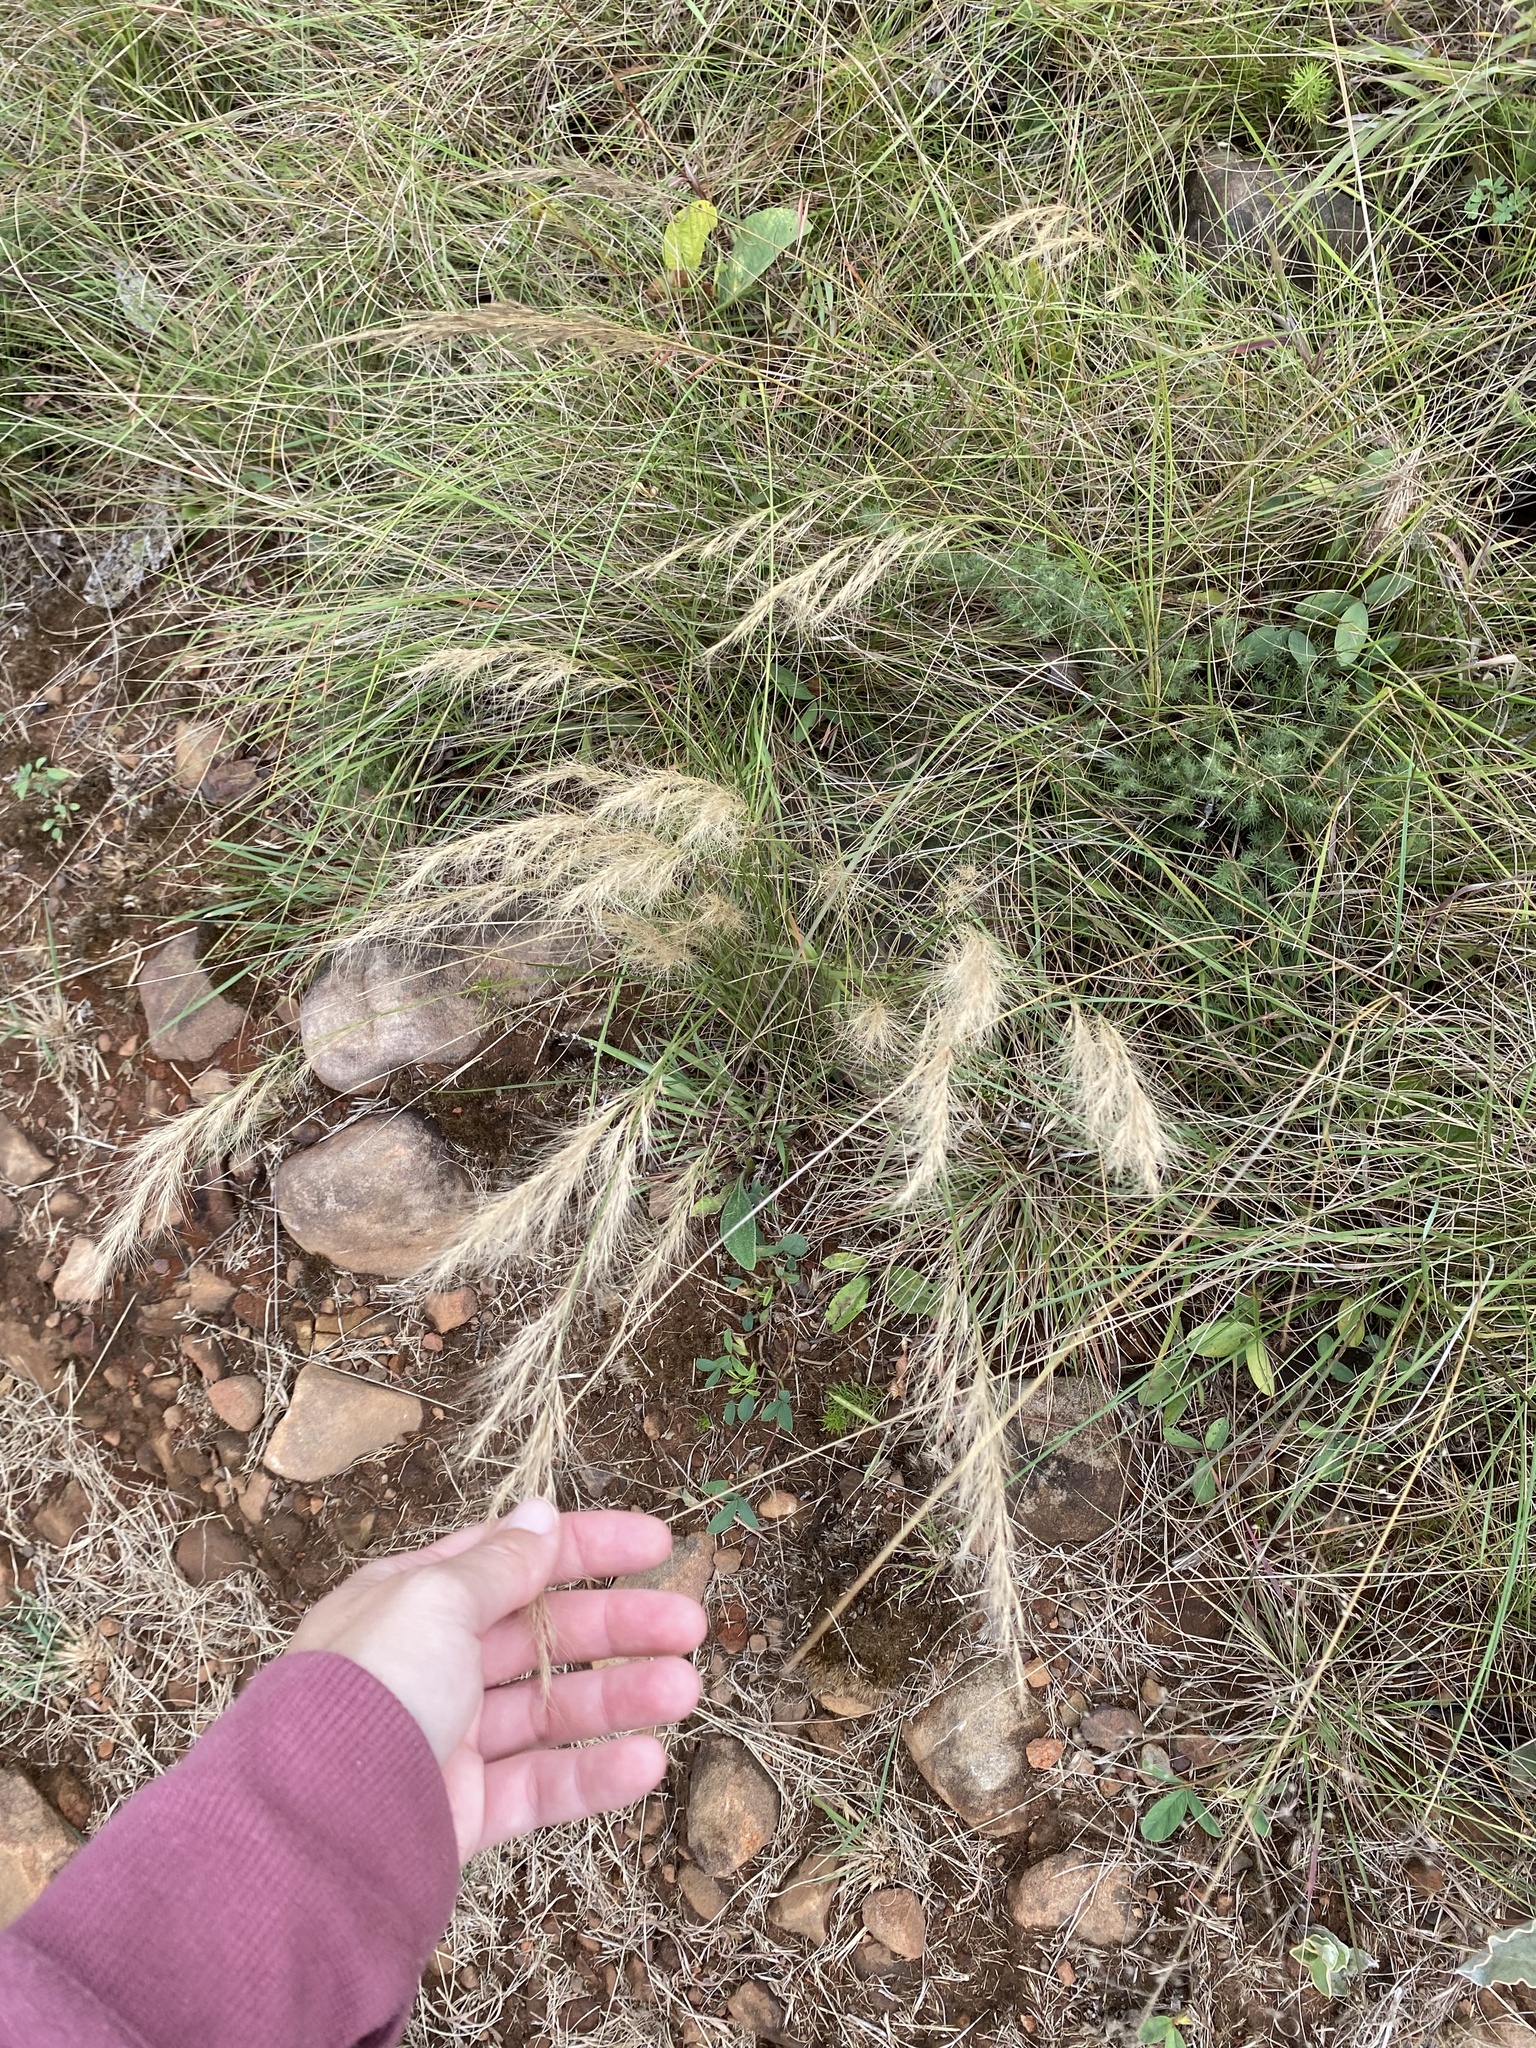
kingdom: Plantae
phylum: Tracheophyta
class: Liliopsida
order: Poales
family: Poaceae
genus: Aristida
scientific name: Aristida junciformis
